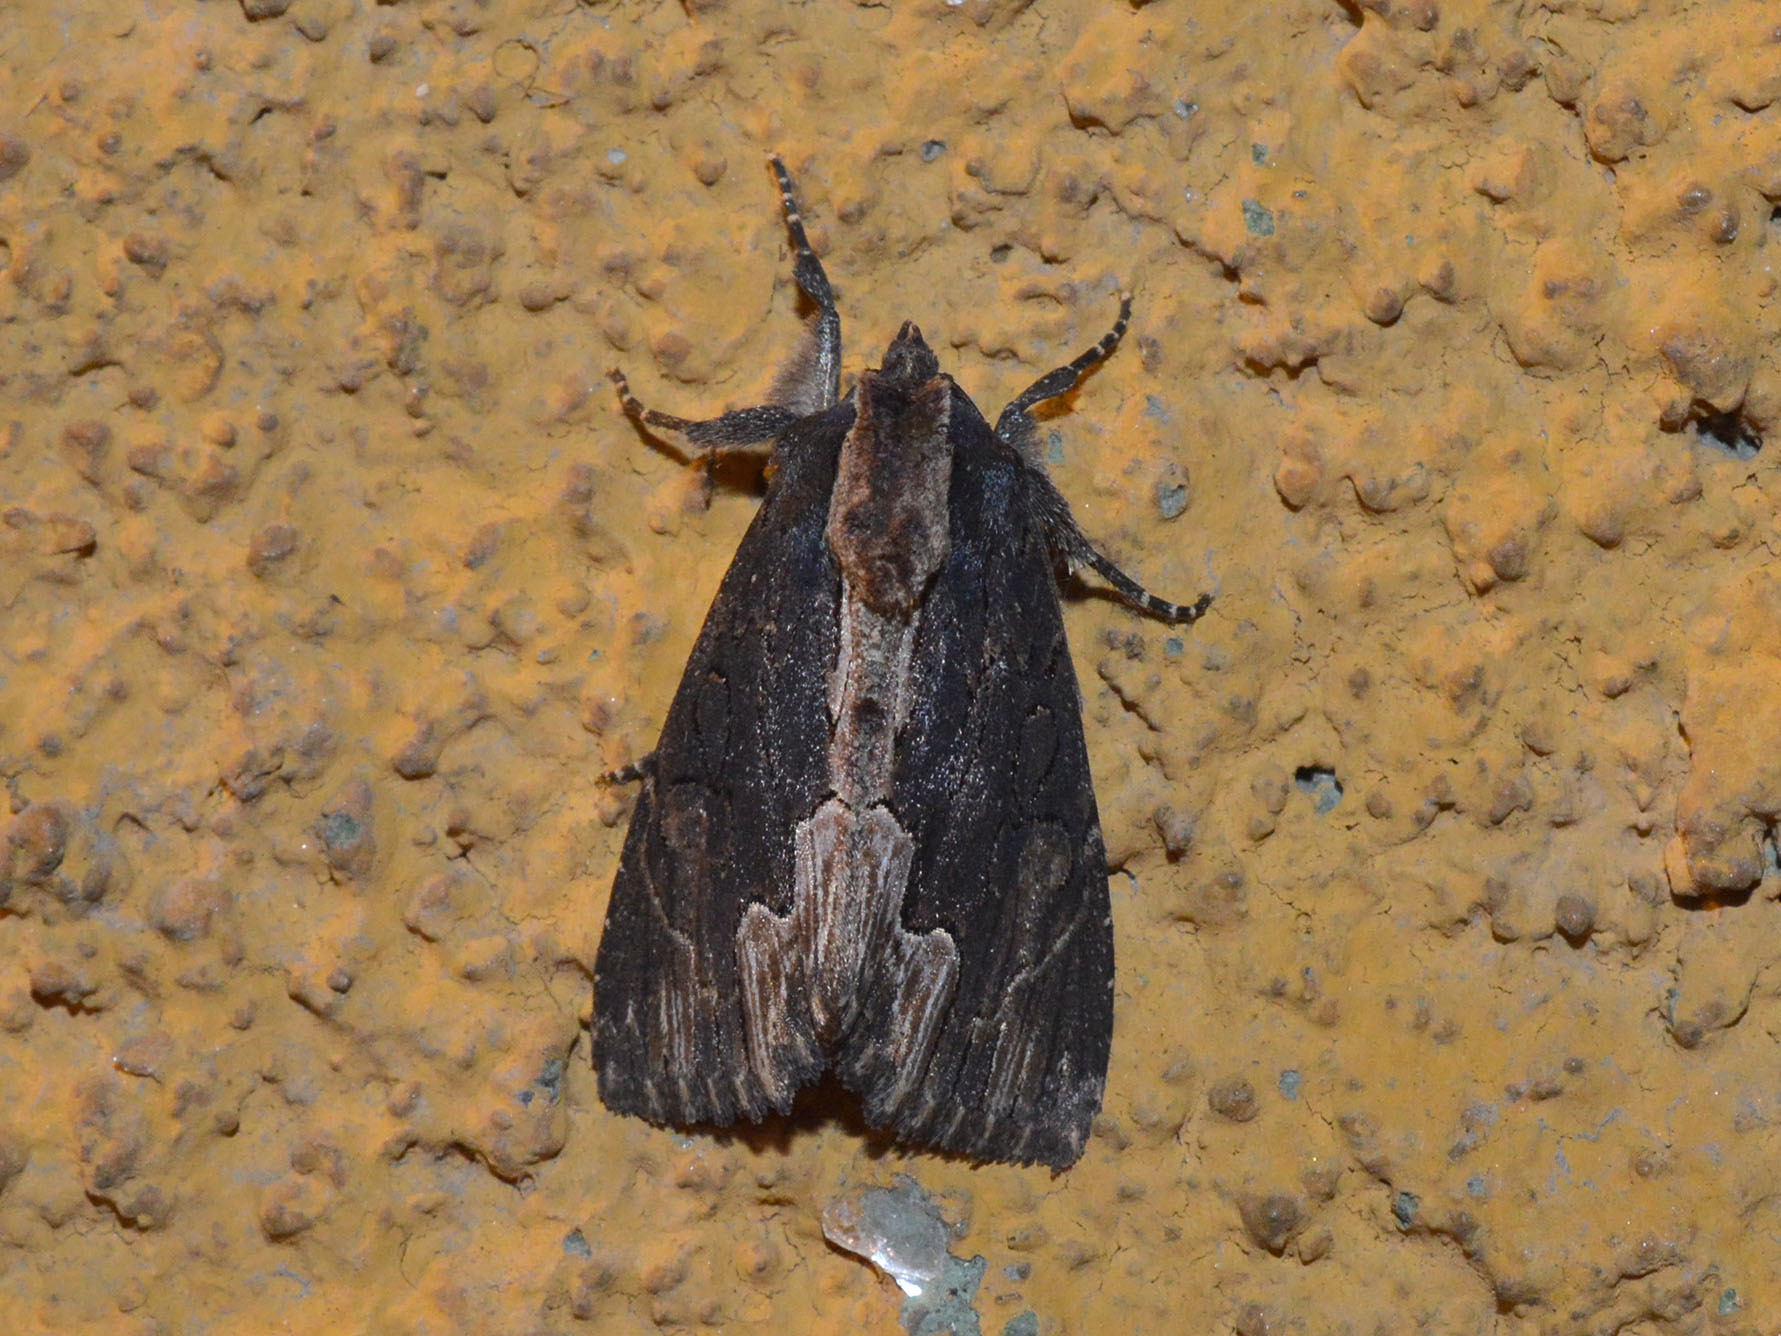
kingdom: Animalia
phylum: Arthropoda
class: Insecta
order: Lepidoptera
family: Noctuidae
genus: Dypterygia
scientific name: Dypterygia scabriuscula
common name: Bird's wing
